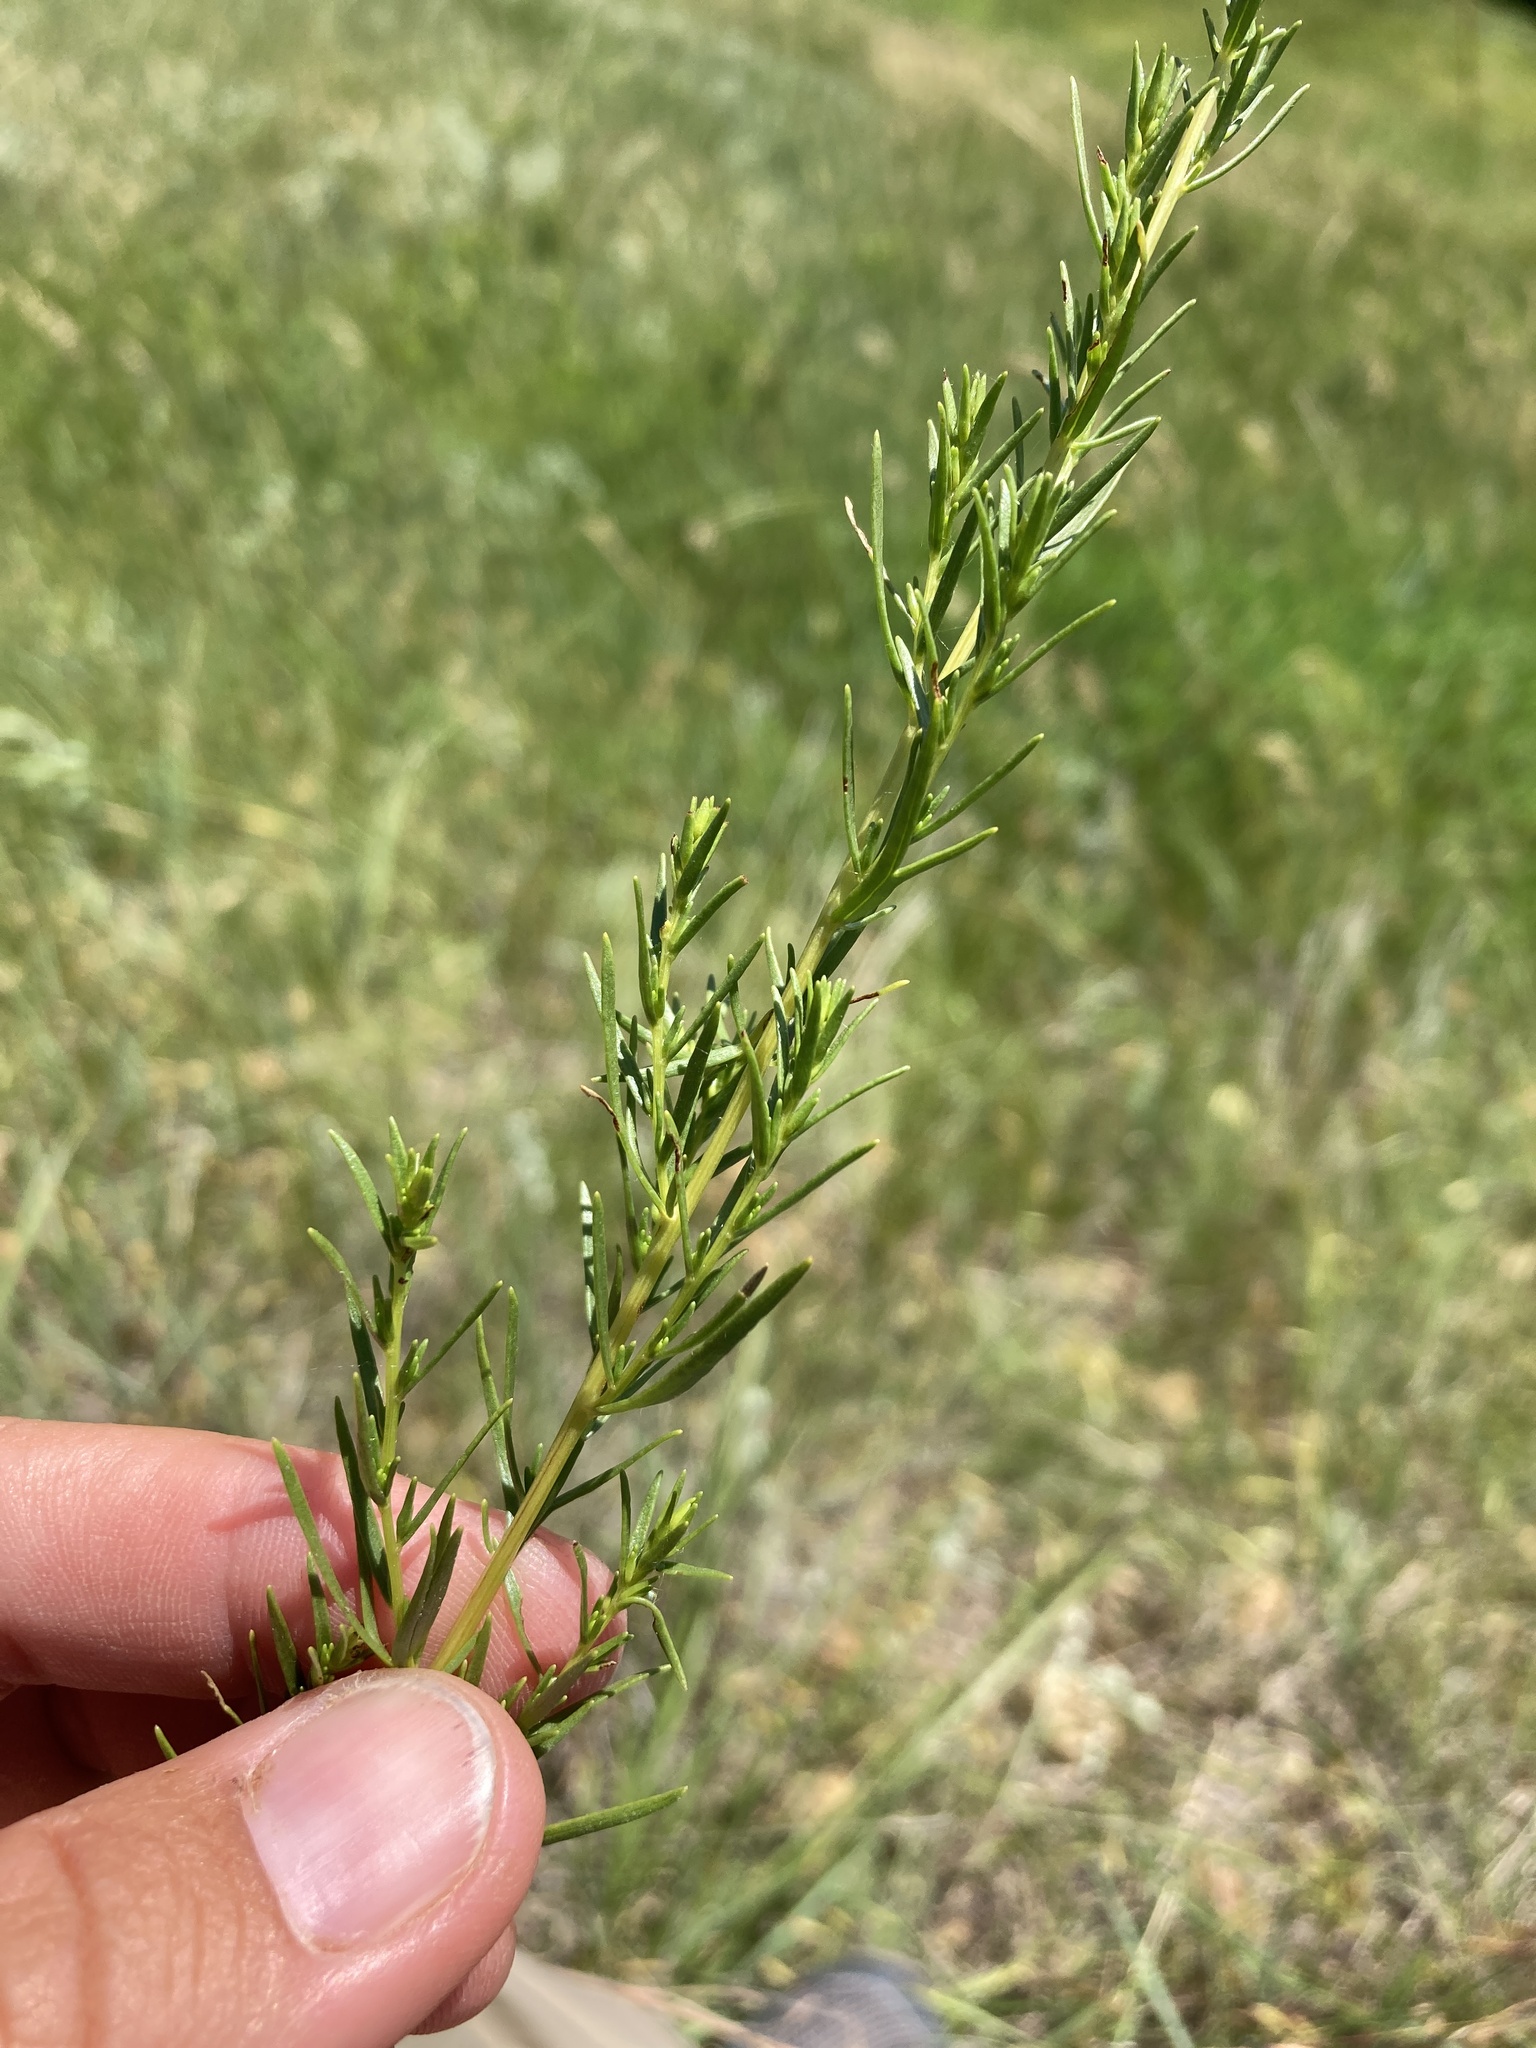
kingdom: Plantae
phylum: Tracheophyta
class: Magnoliopsida
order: Asterales
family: Asteraceae
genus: Artemisia
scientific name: Artemisia dracunculus
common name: Tarragon
